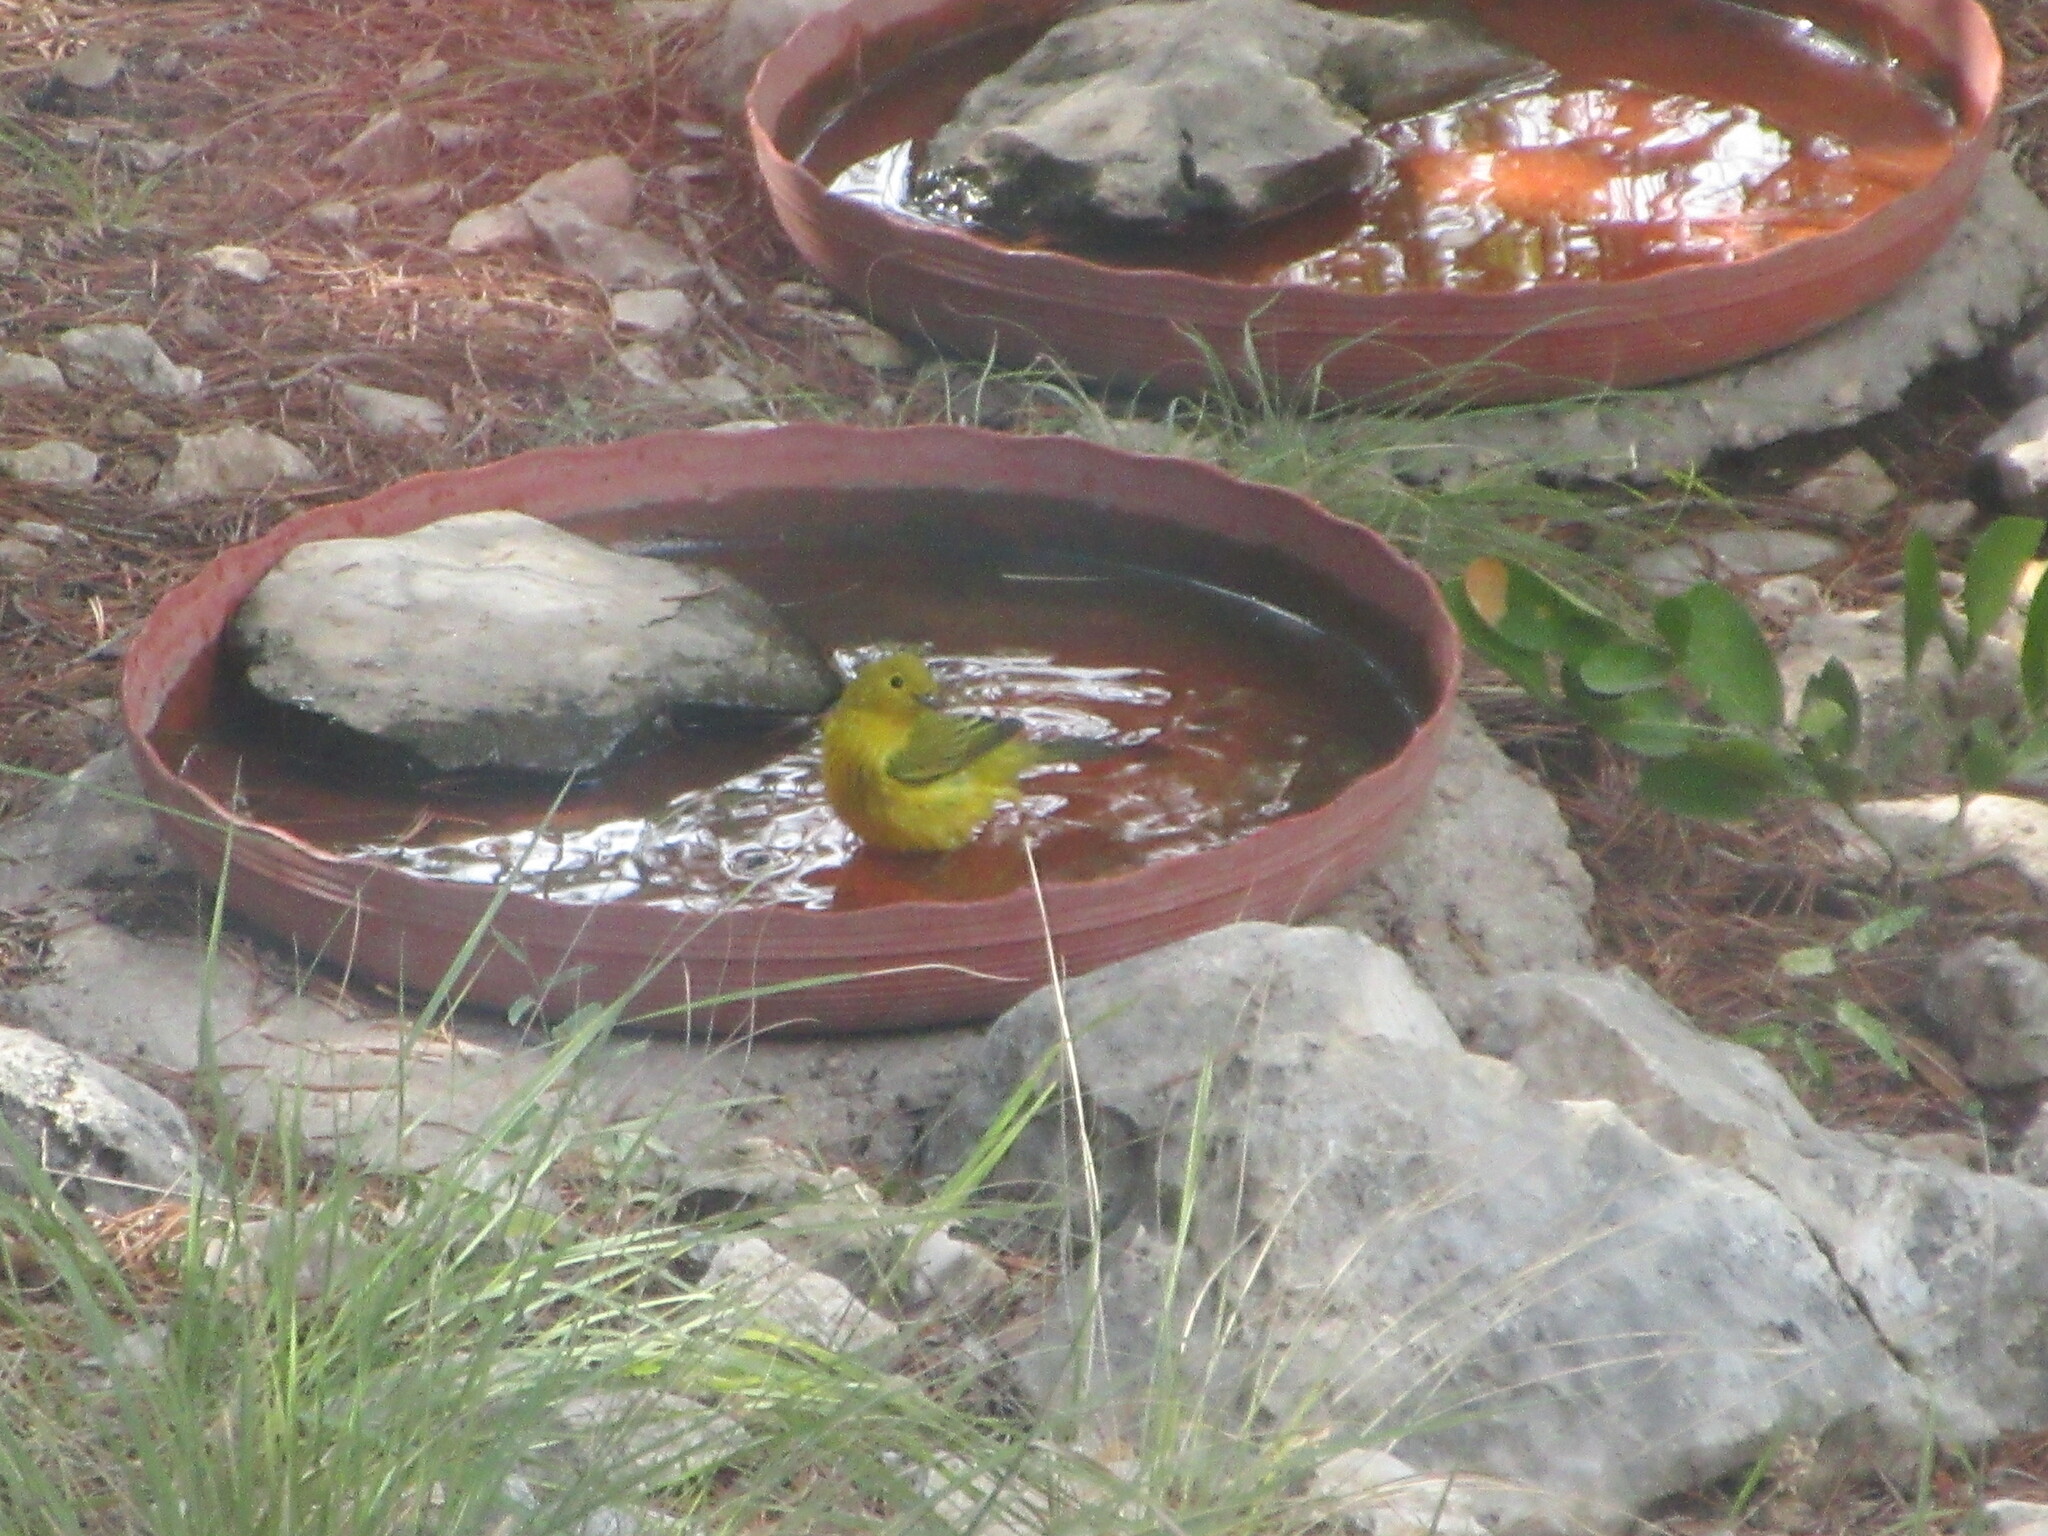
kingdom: Animalia
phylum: Chordata
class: Aves
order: Passeriformes
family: Parulidae
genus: Setophaga
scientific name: Setophaga petechia
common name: Yellow warbler
